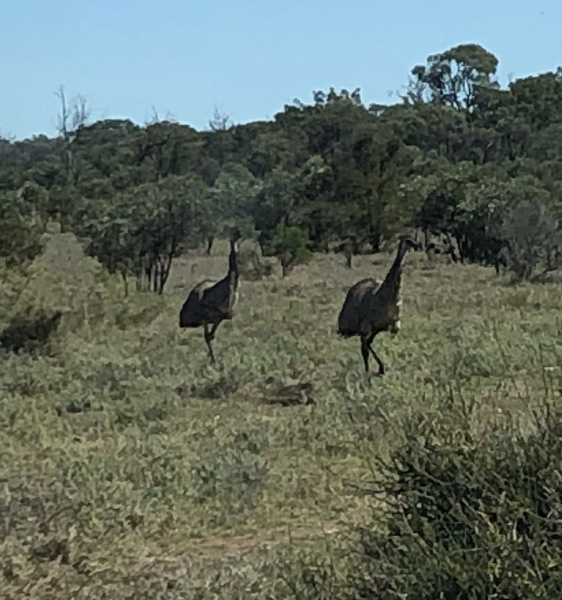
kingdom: Animalia
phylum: Chordata
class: Aves
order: Casuariiformes
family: Dromaiidae
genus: Dromaius
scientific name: Dromaius novaehollandiae
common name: Emu
